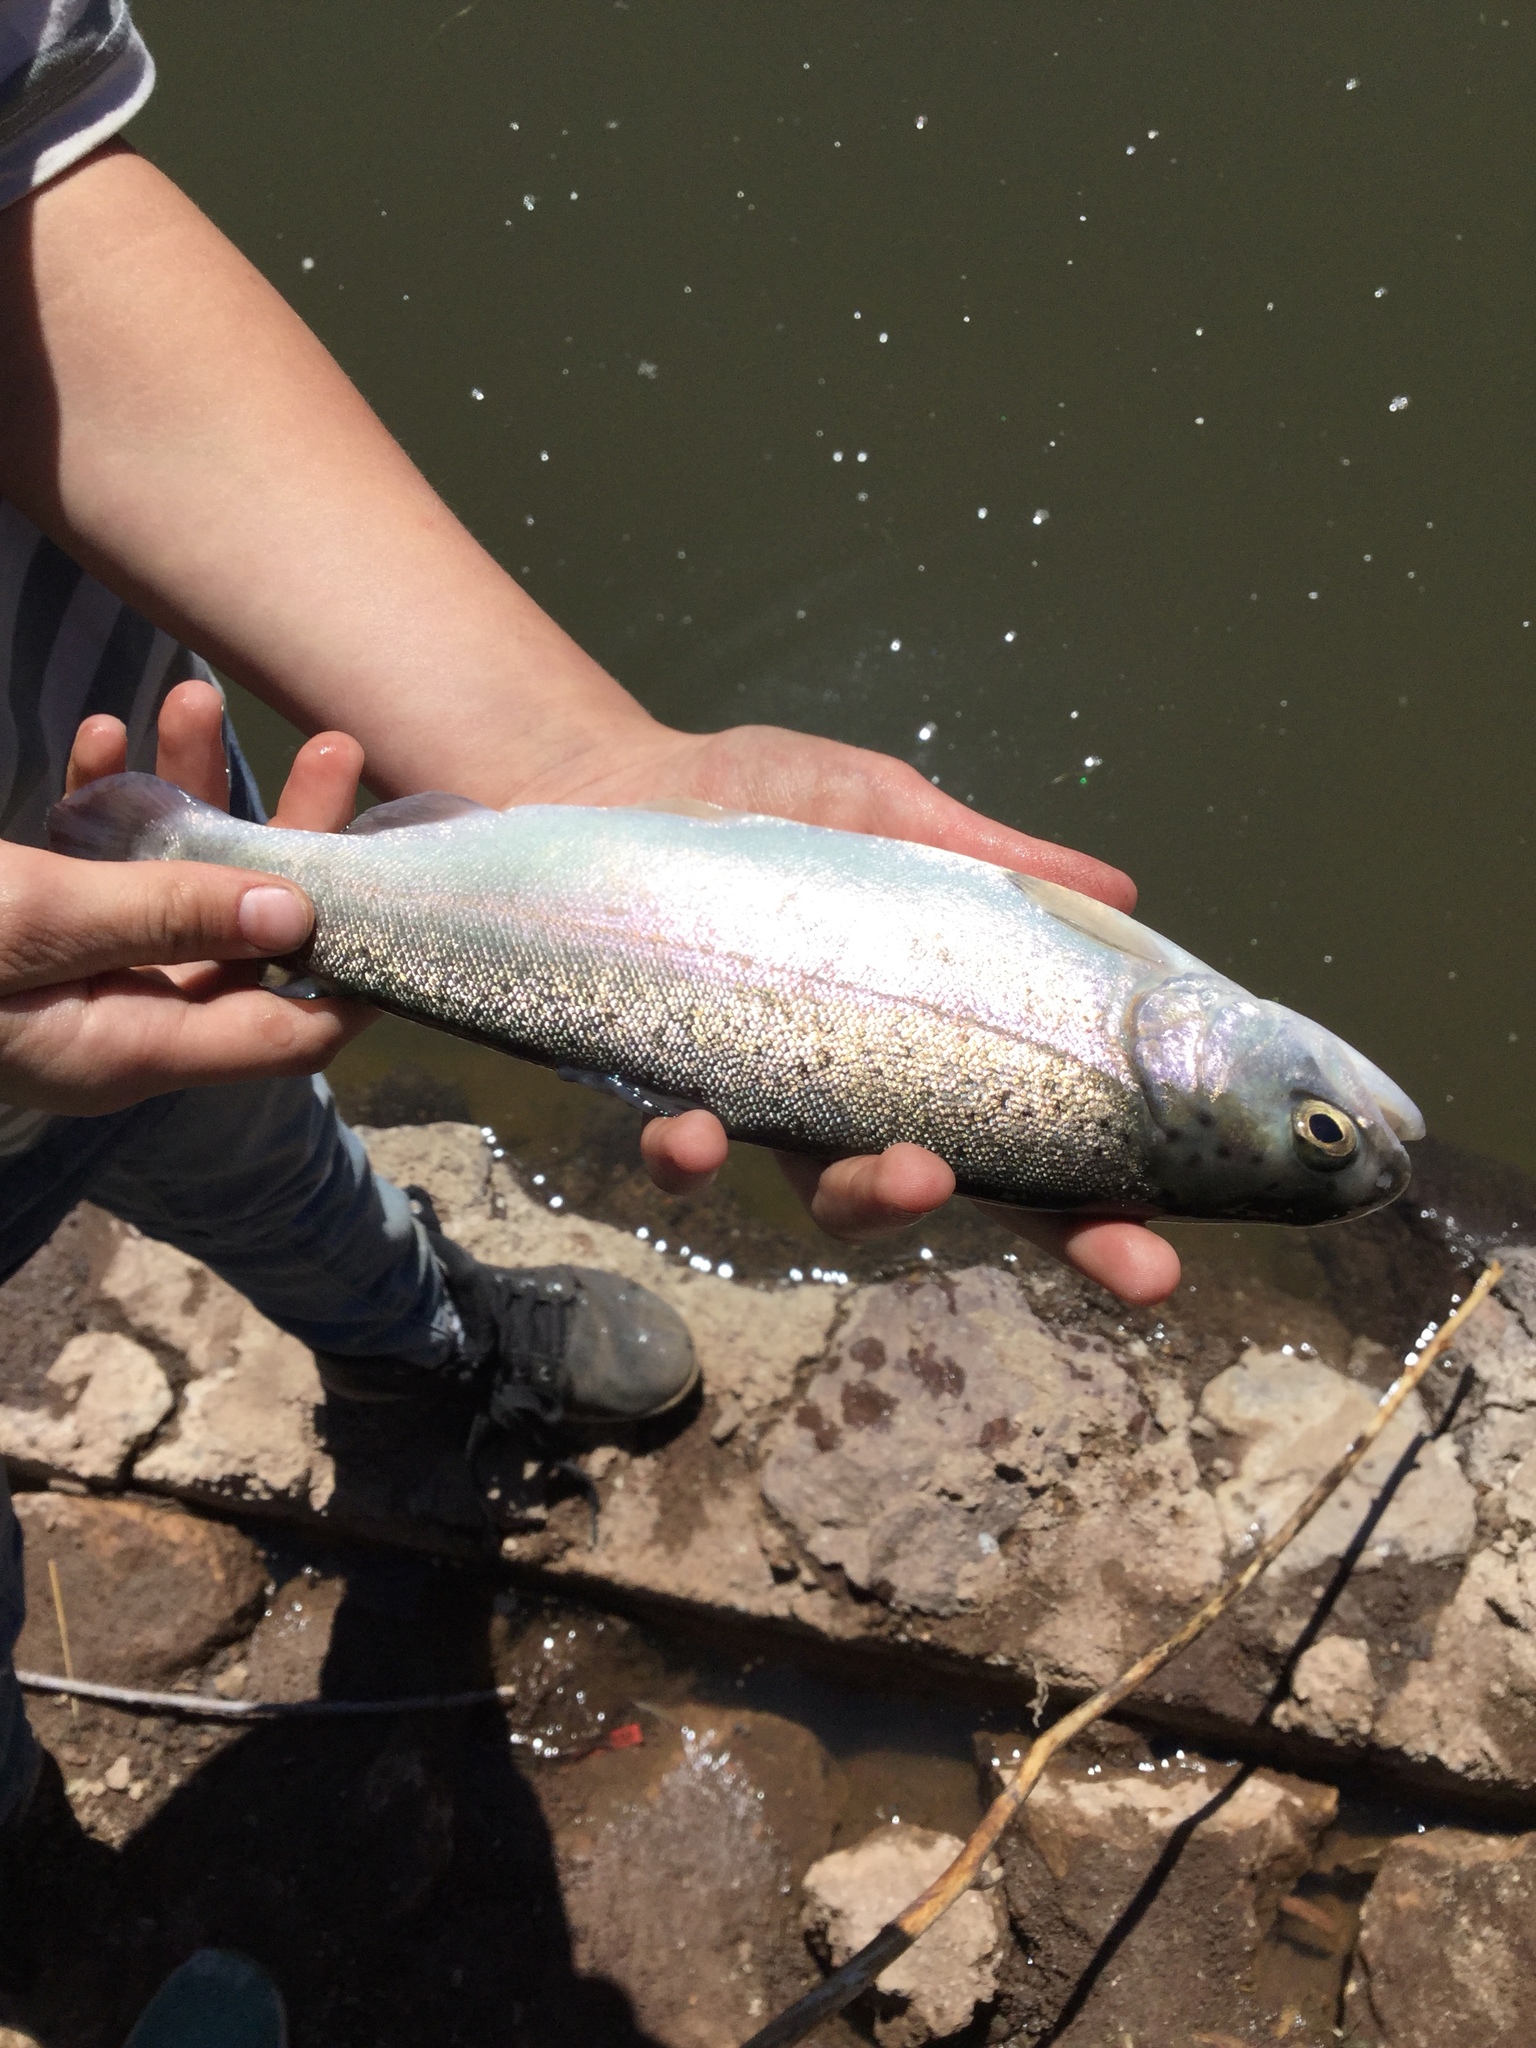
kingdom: Animalia
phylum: Chordata
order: Salmoniformes
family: Salmonidae
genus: Oncorhynchus
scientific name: Oncorhynchus mykiss
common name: Rainbow trout
